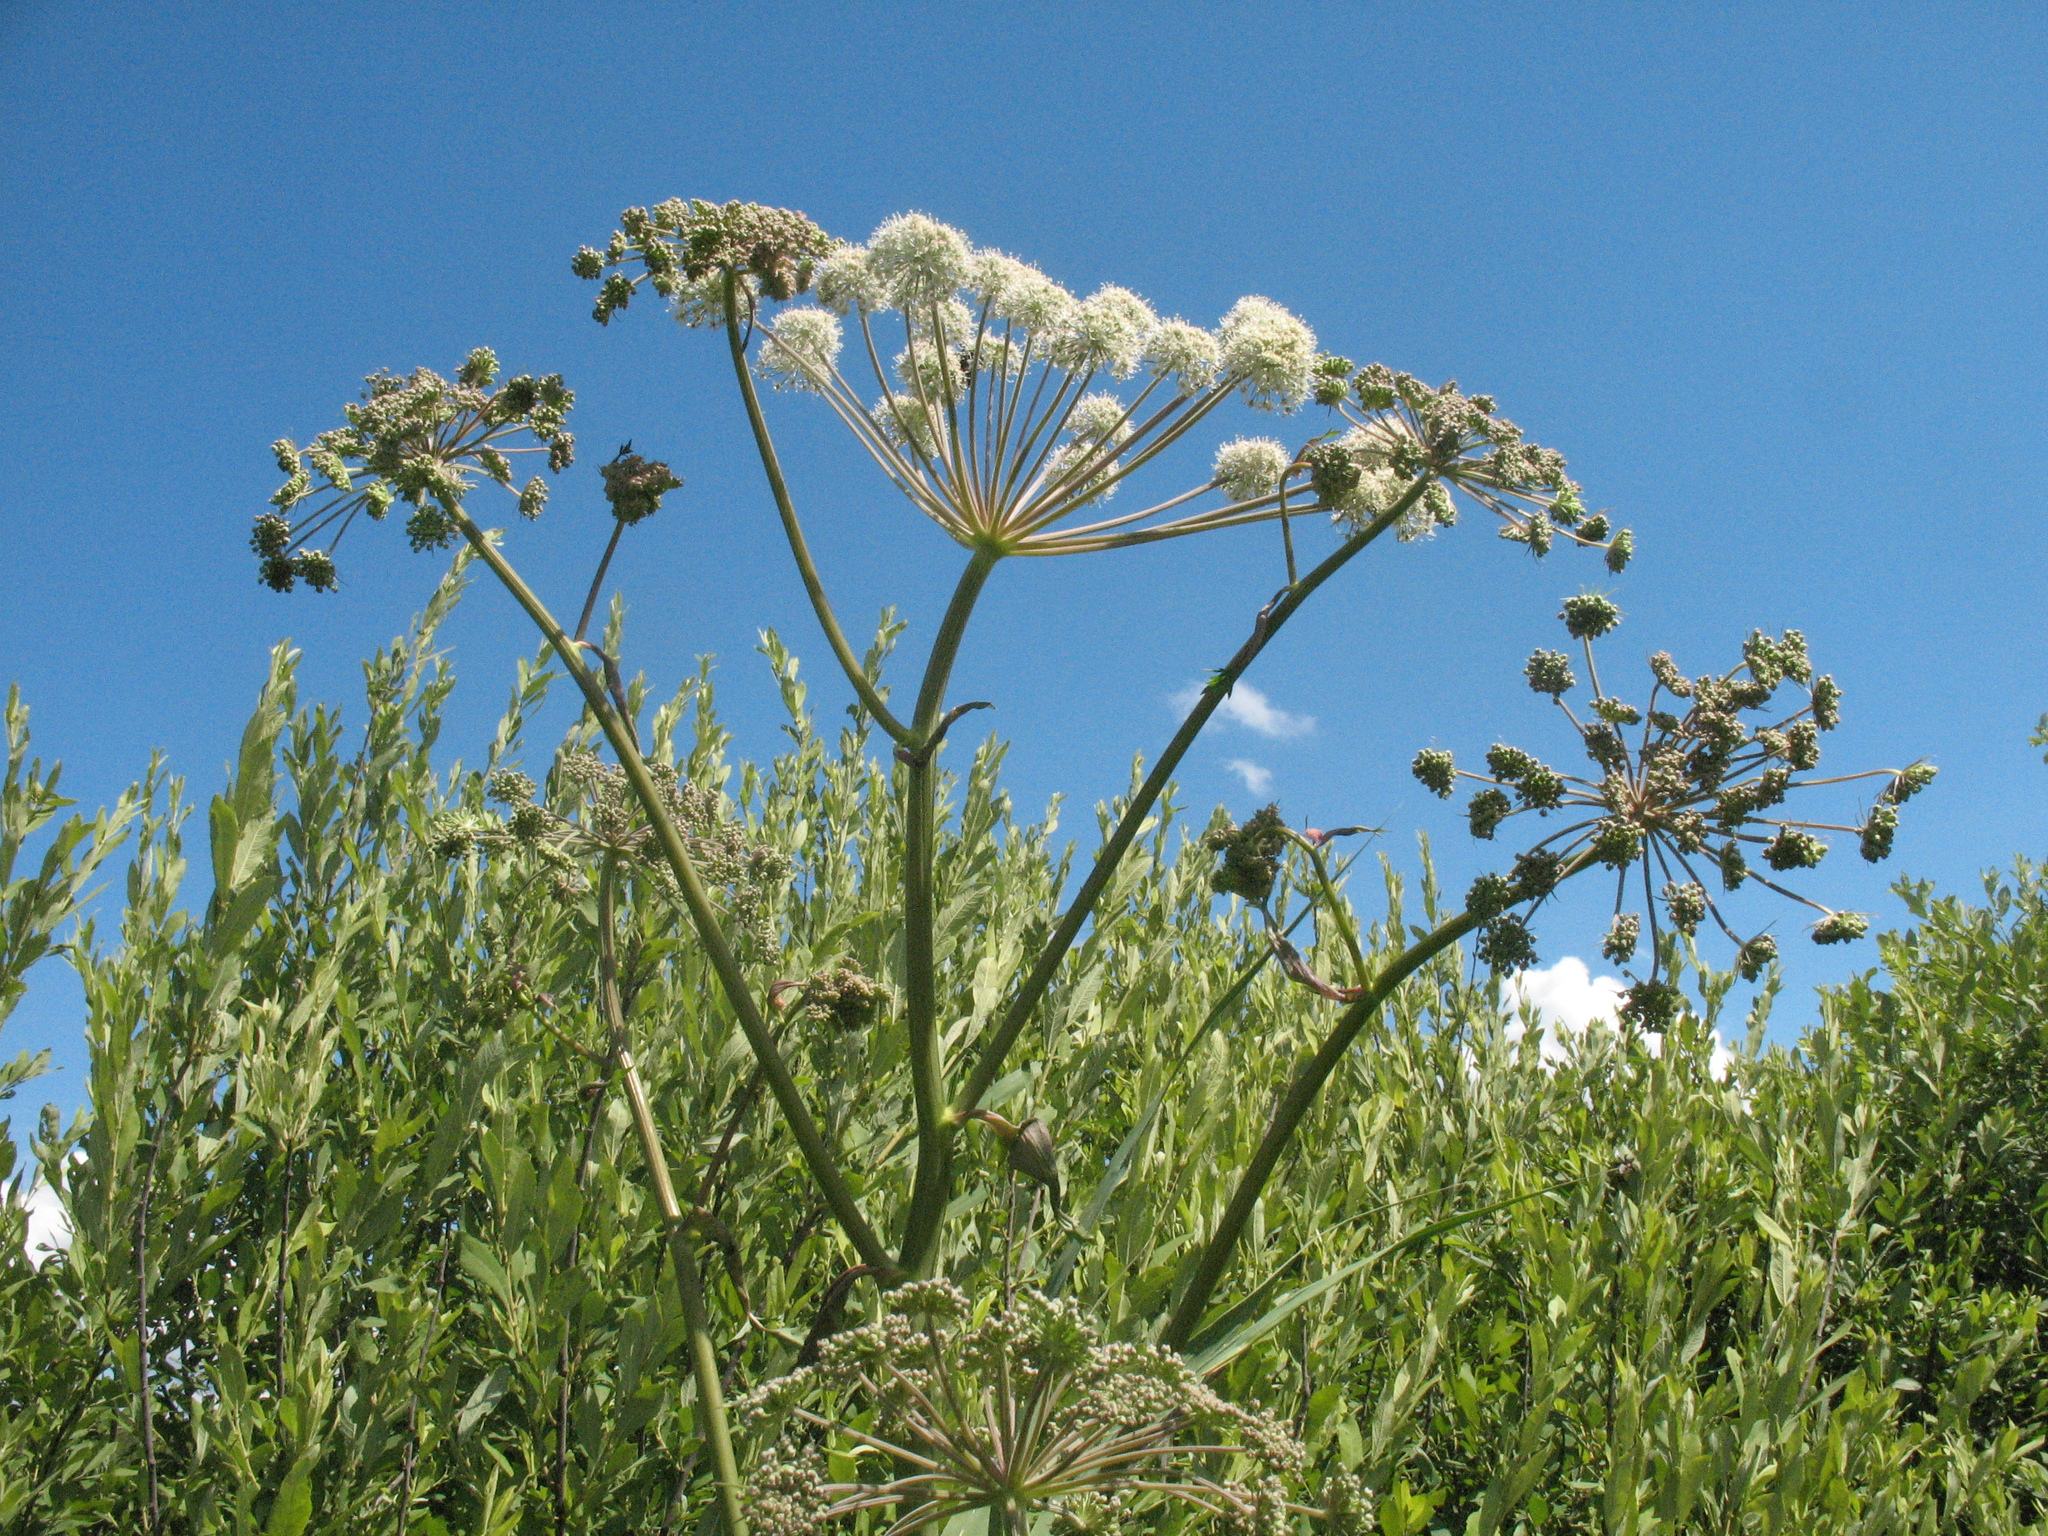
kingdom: Plantae
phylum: Tracheophyta
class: Magnoliopsida
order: Apiales
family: Apiaceae
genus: Angelica
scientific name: Angelica sylvestris
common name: Wild angelica
